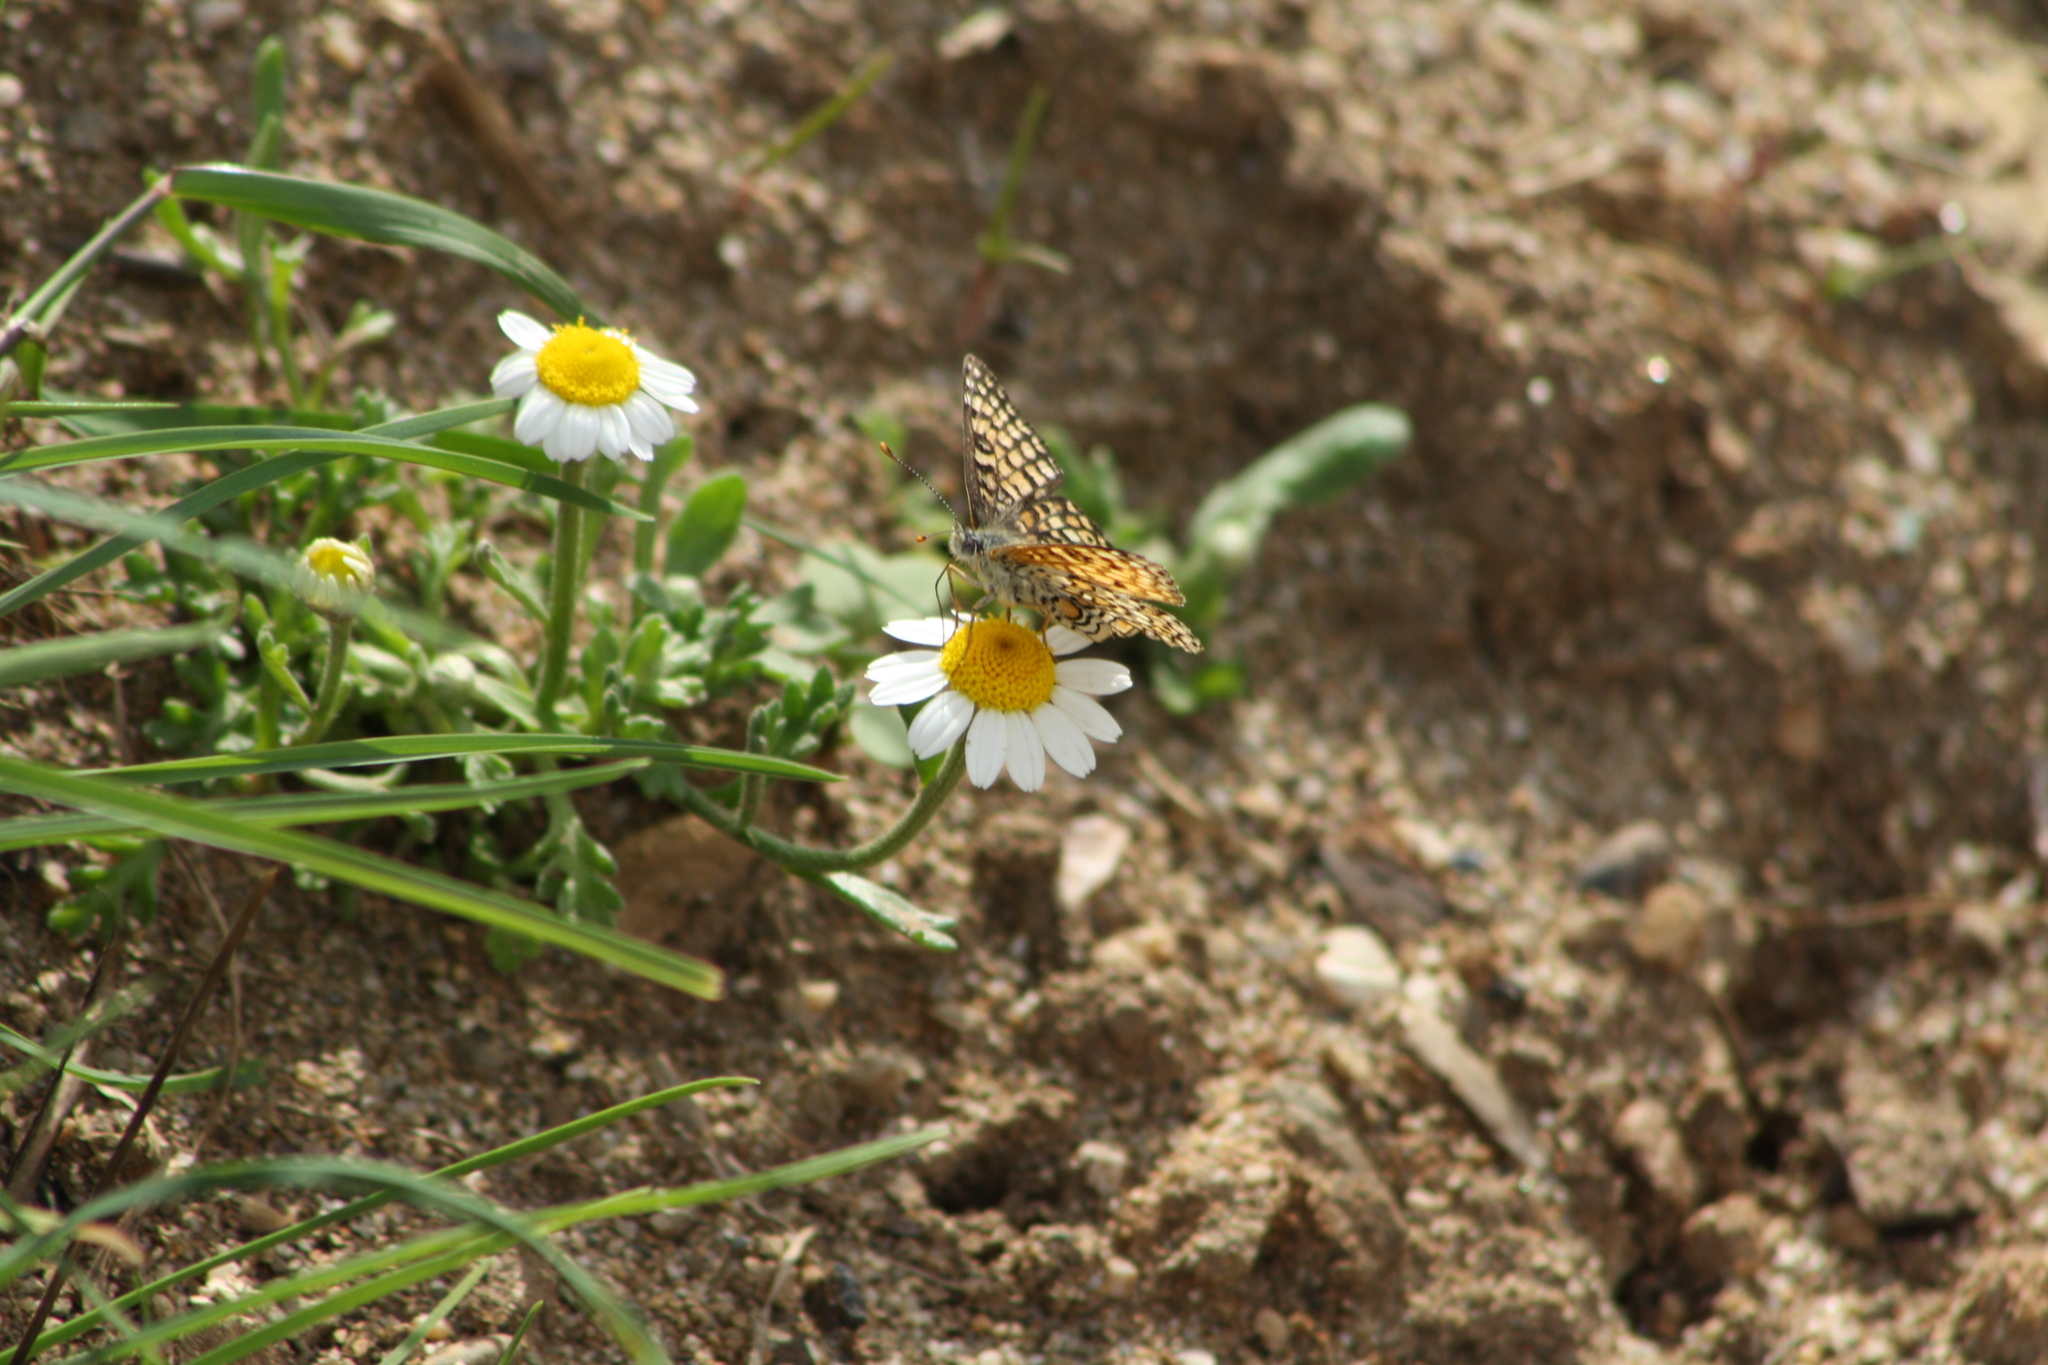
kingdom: Animalia
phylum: Arthropoda
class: Insecta
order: Lepidoptera
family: Nymphalidae
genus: Melitaea
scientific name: Melitaea cinxia
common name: Glanville fritillary
